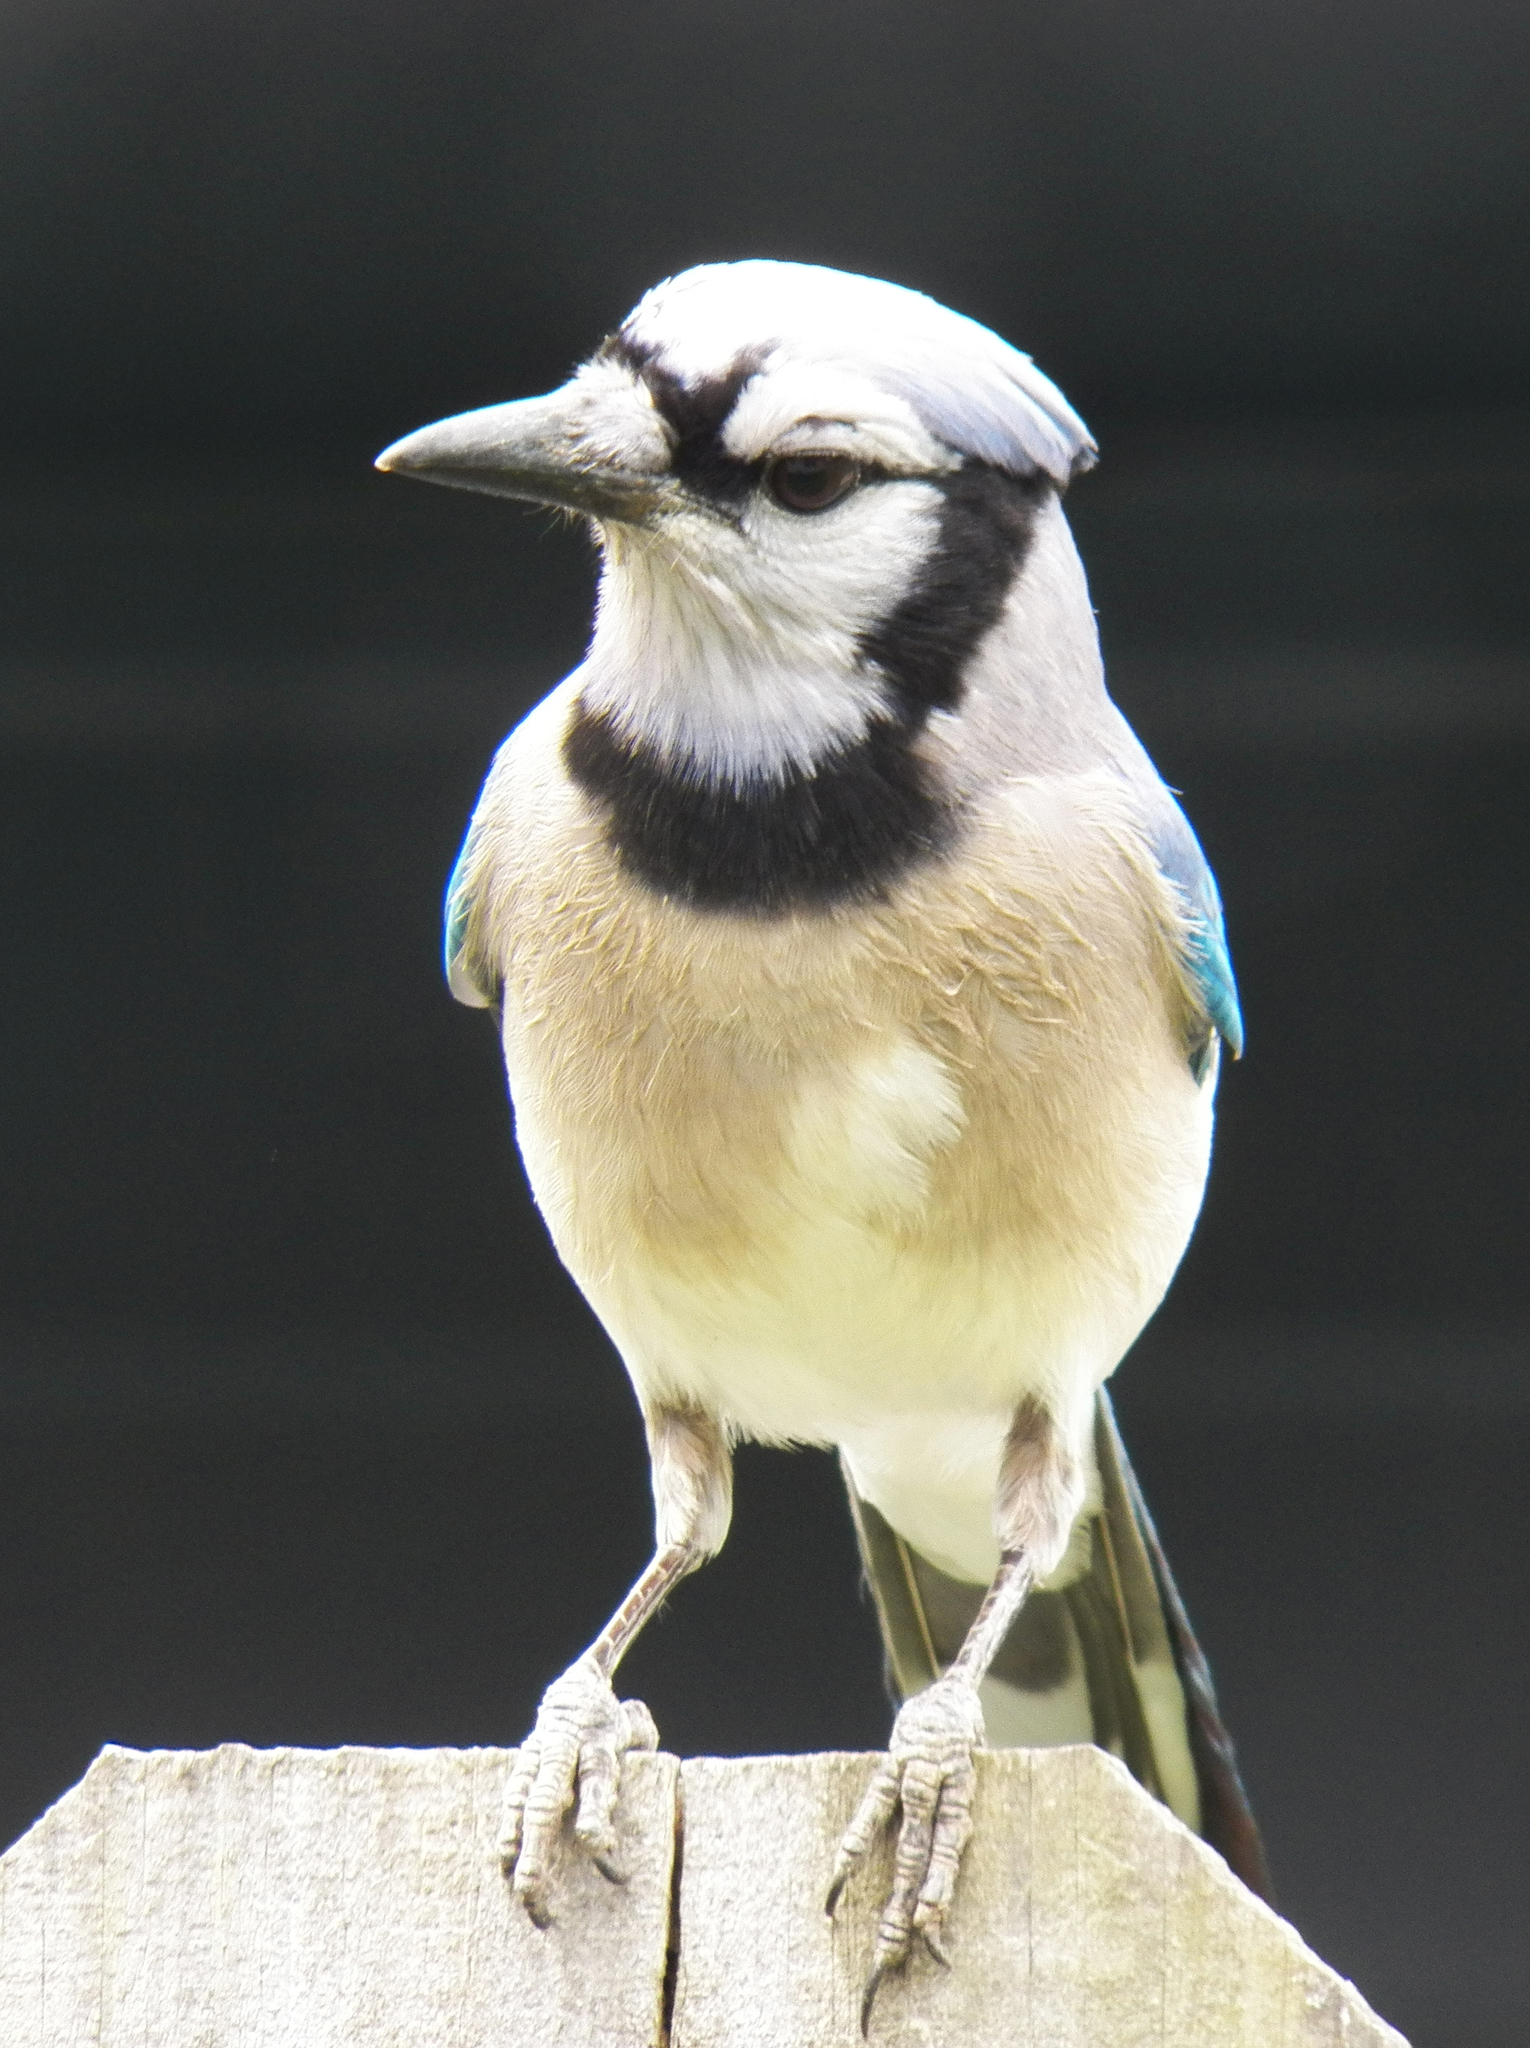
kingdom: Animalia
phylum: Chordata
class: Aves
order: Passeriformes
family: Corvidae
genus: Cyanocitta
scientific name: Cyanocitta cristata
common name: Blue jay
